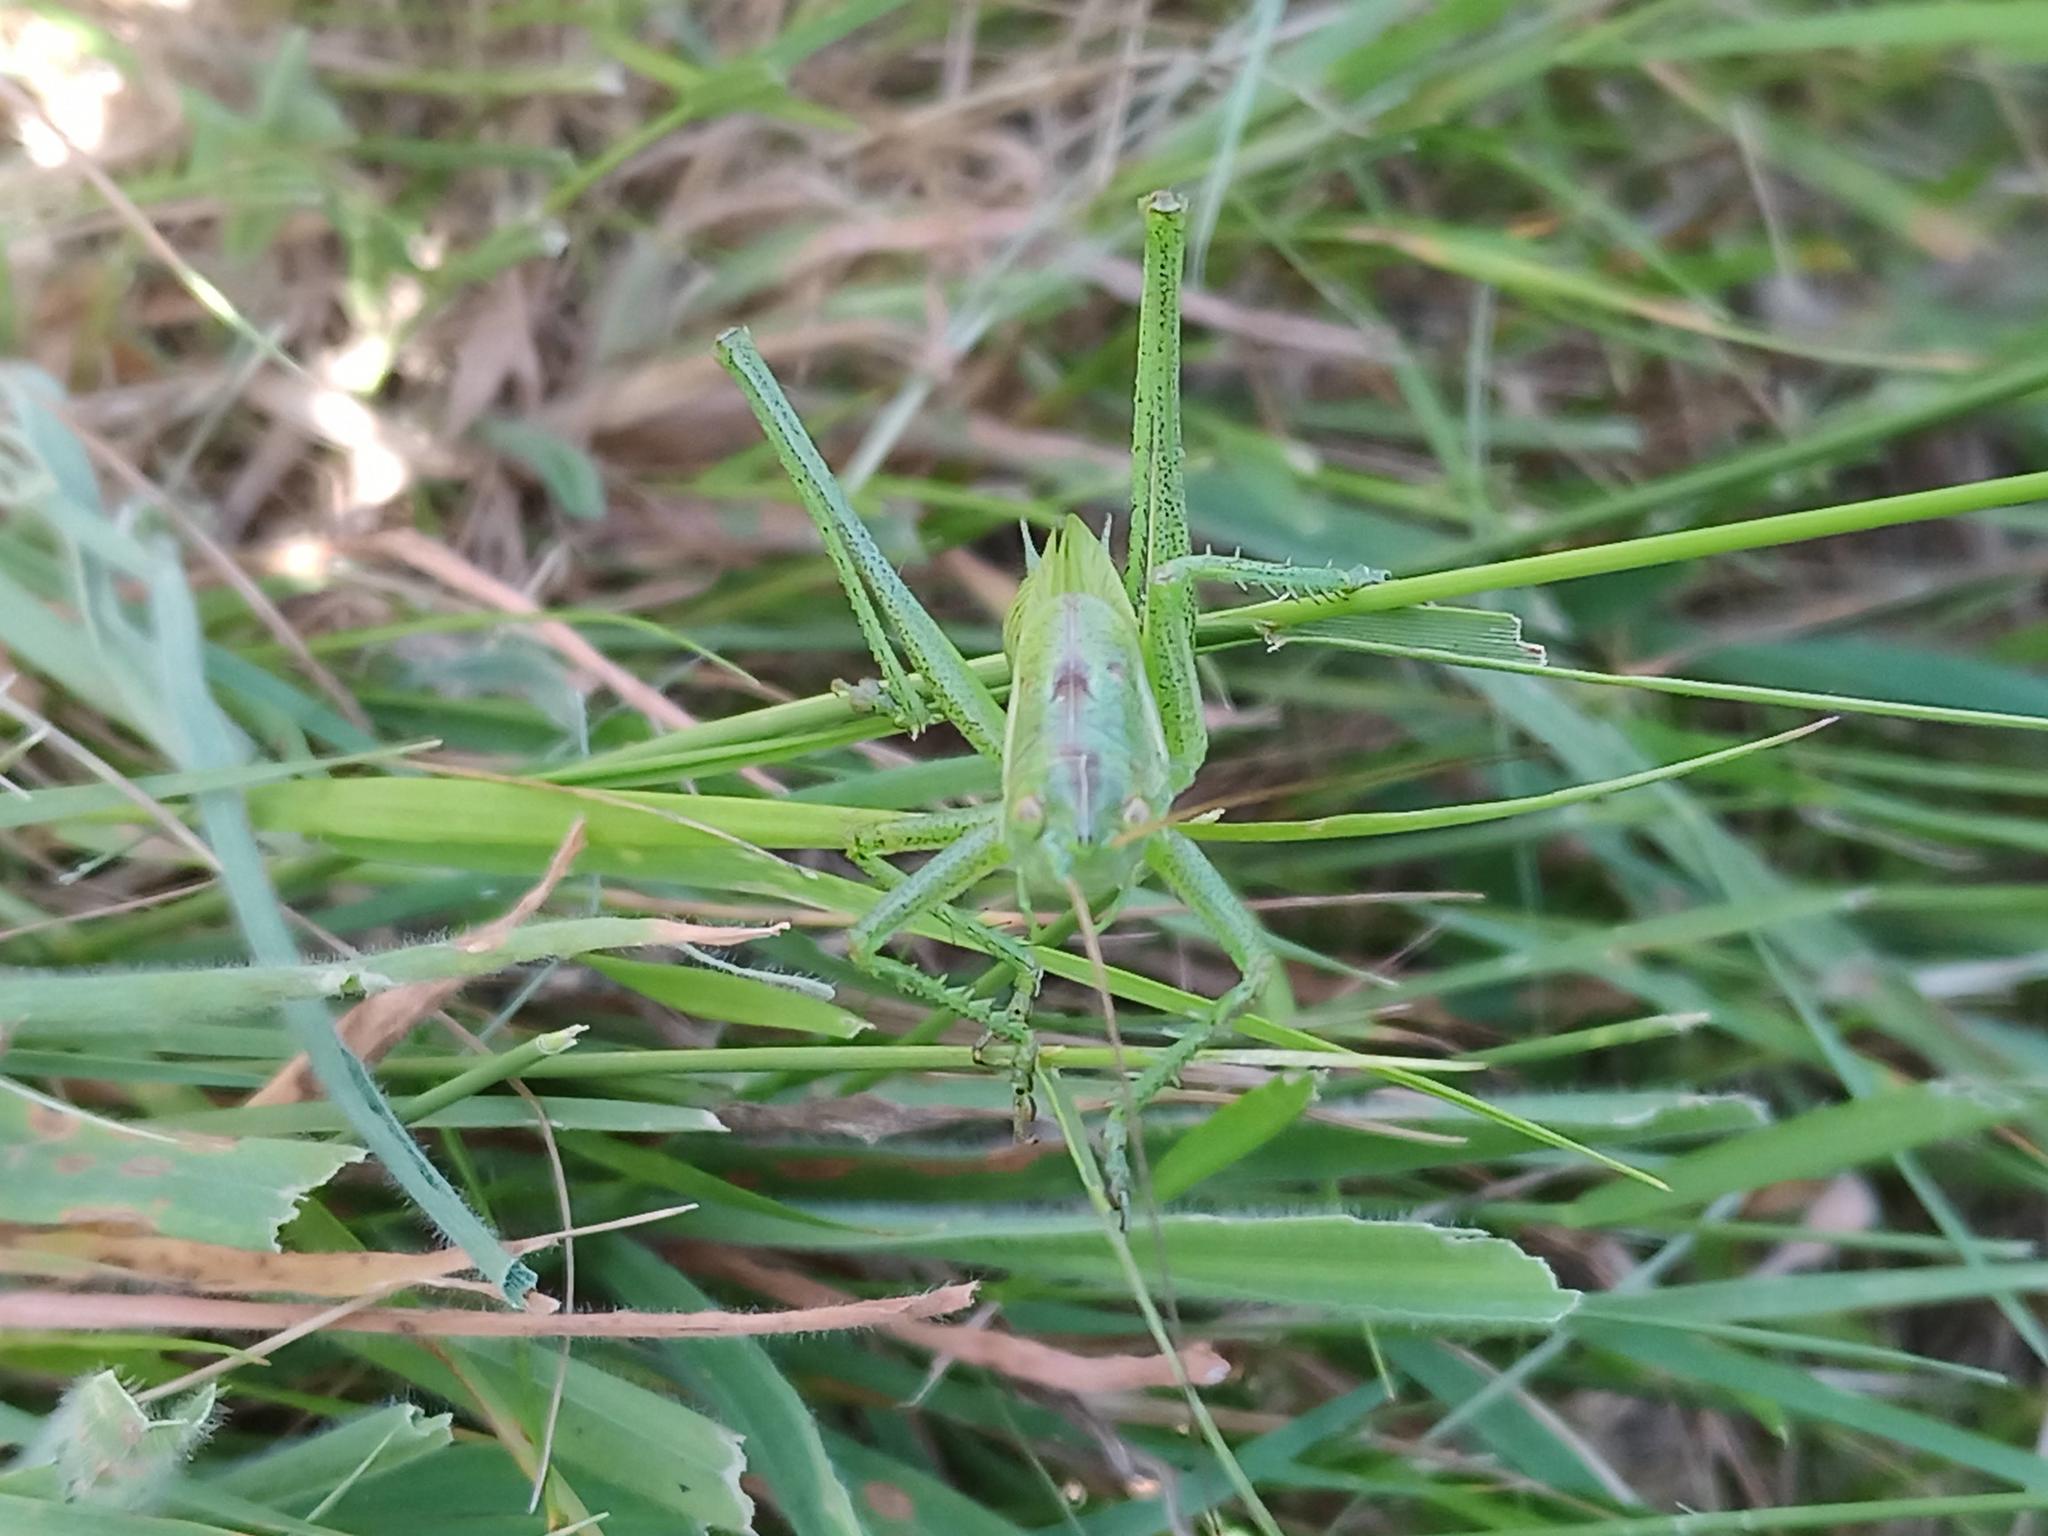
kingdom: Animalia
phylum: Arthropoda
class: Insecta
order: Orthoptera
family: Tettigoniidae
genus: Tettigonia
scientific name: Tettigonia viridissima
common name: Great green bush-cricket
